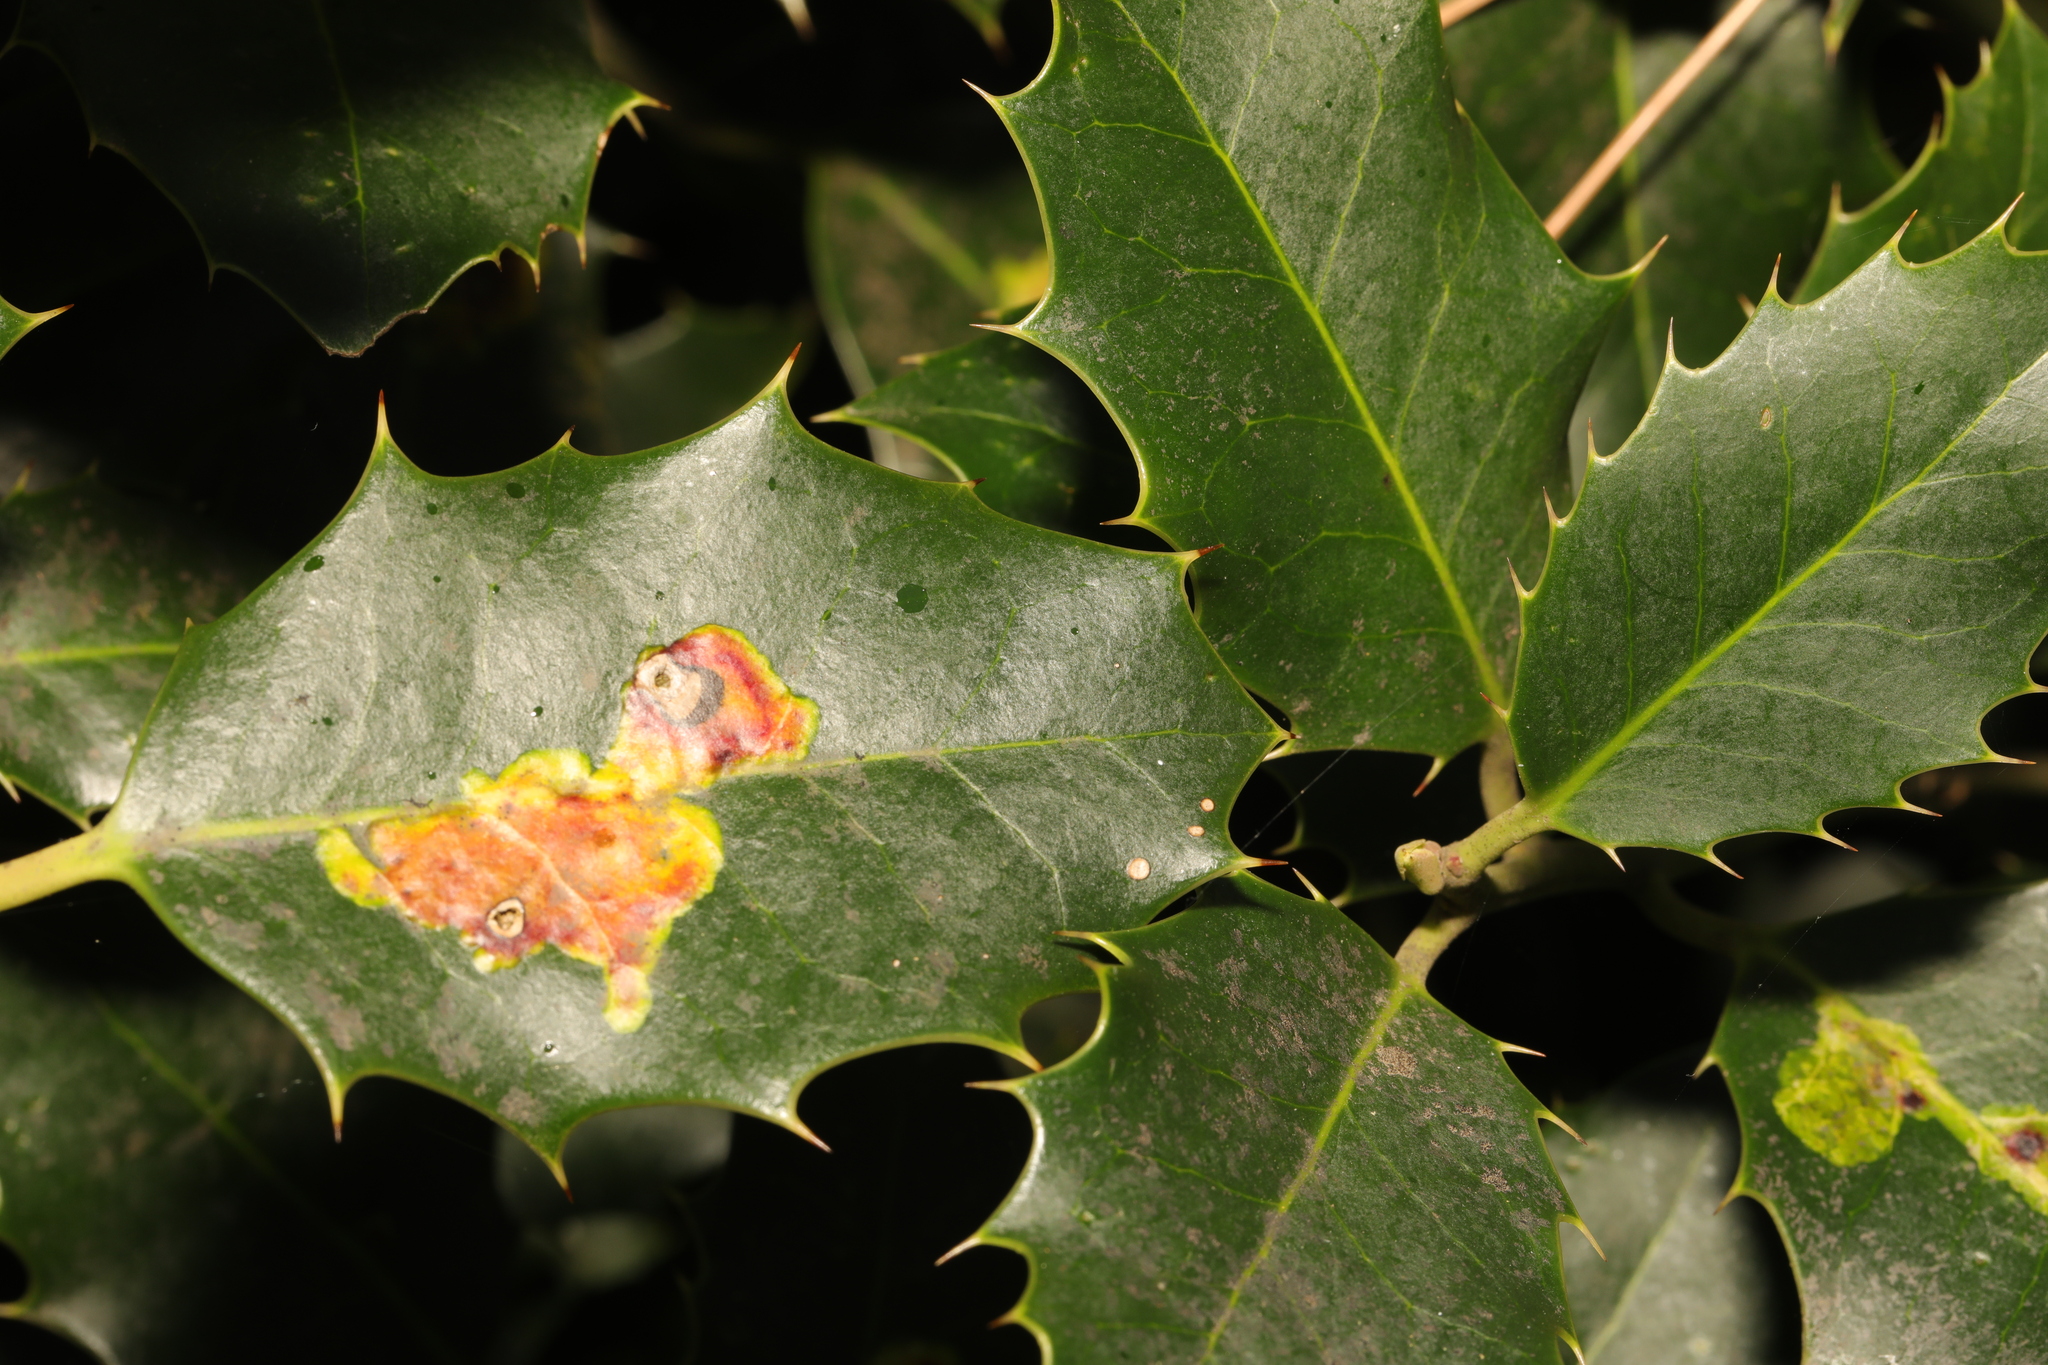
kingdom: Animalia
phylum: Arthropoda
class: Insecta
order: Diptera
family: Agromyzidae
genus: Phytomyza
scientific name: Phytomyza ilicis
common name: Holly leafminer
